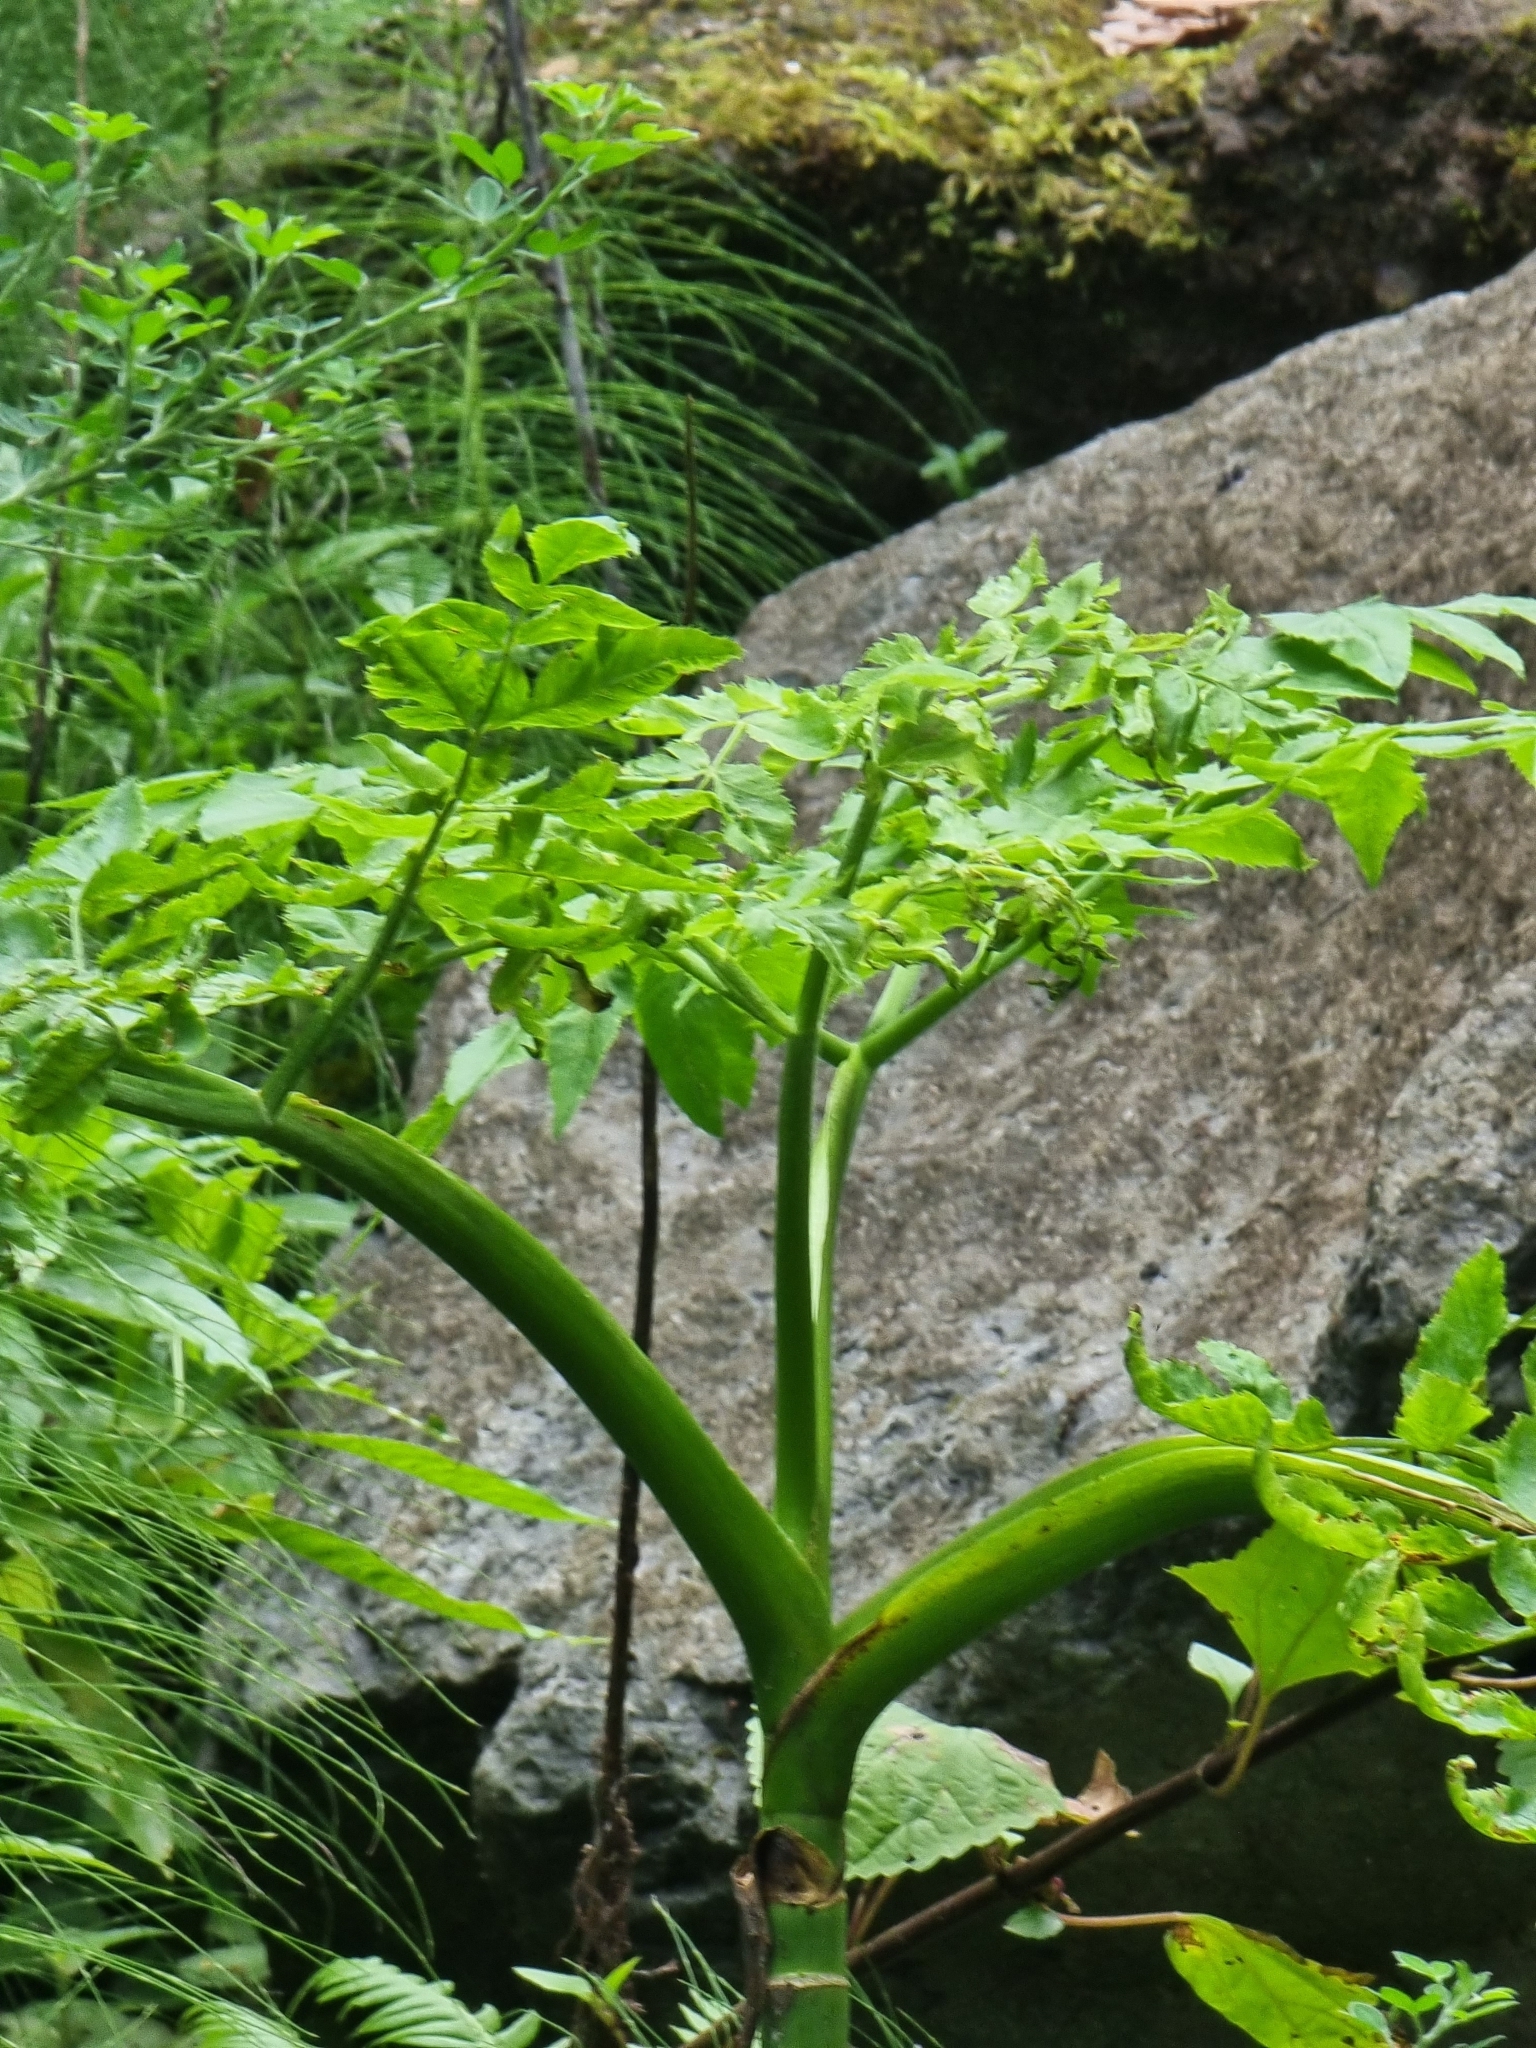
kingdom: Plantae
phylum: Tracheophyta
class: Magnoliopsida
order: Apiales
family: Apiaceae
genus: Daucus
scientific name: Daucus decipiens
